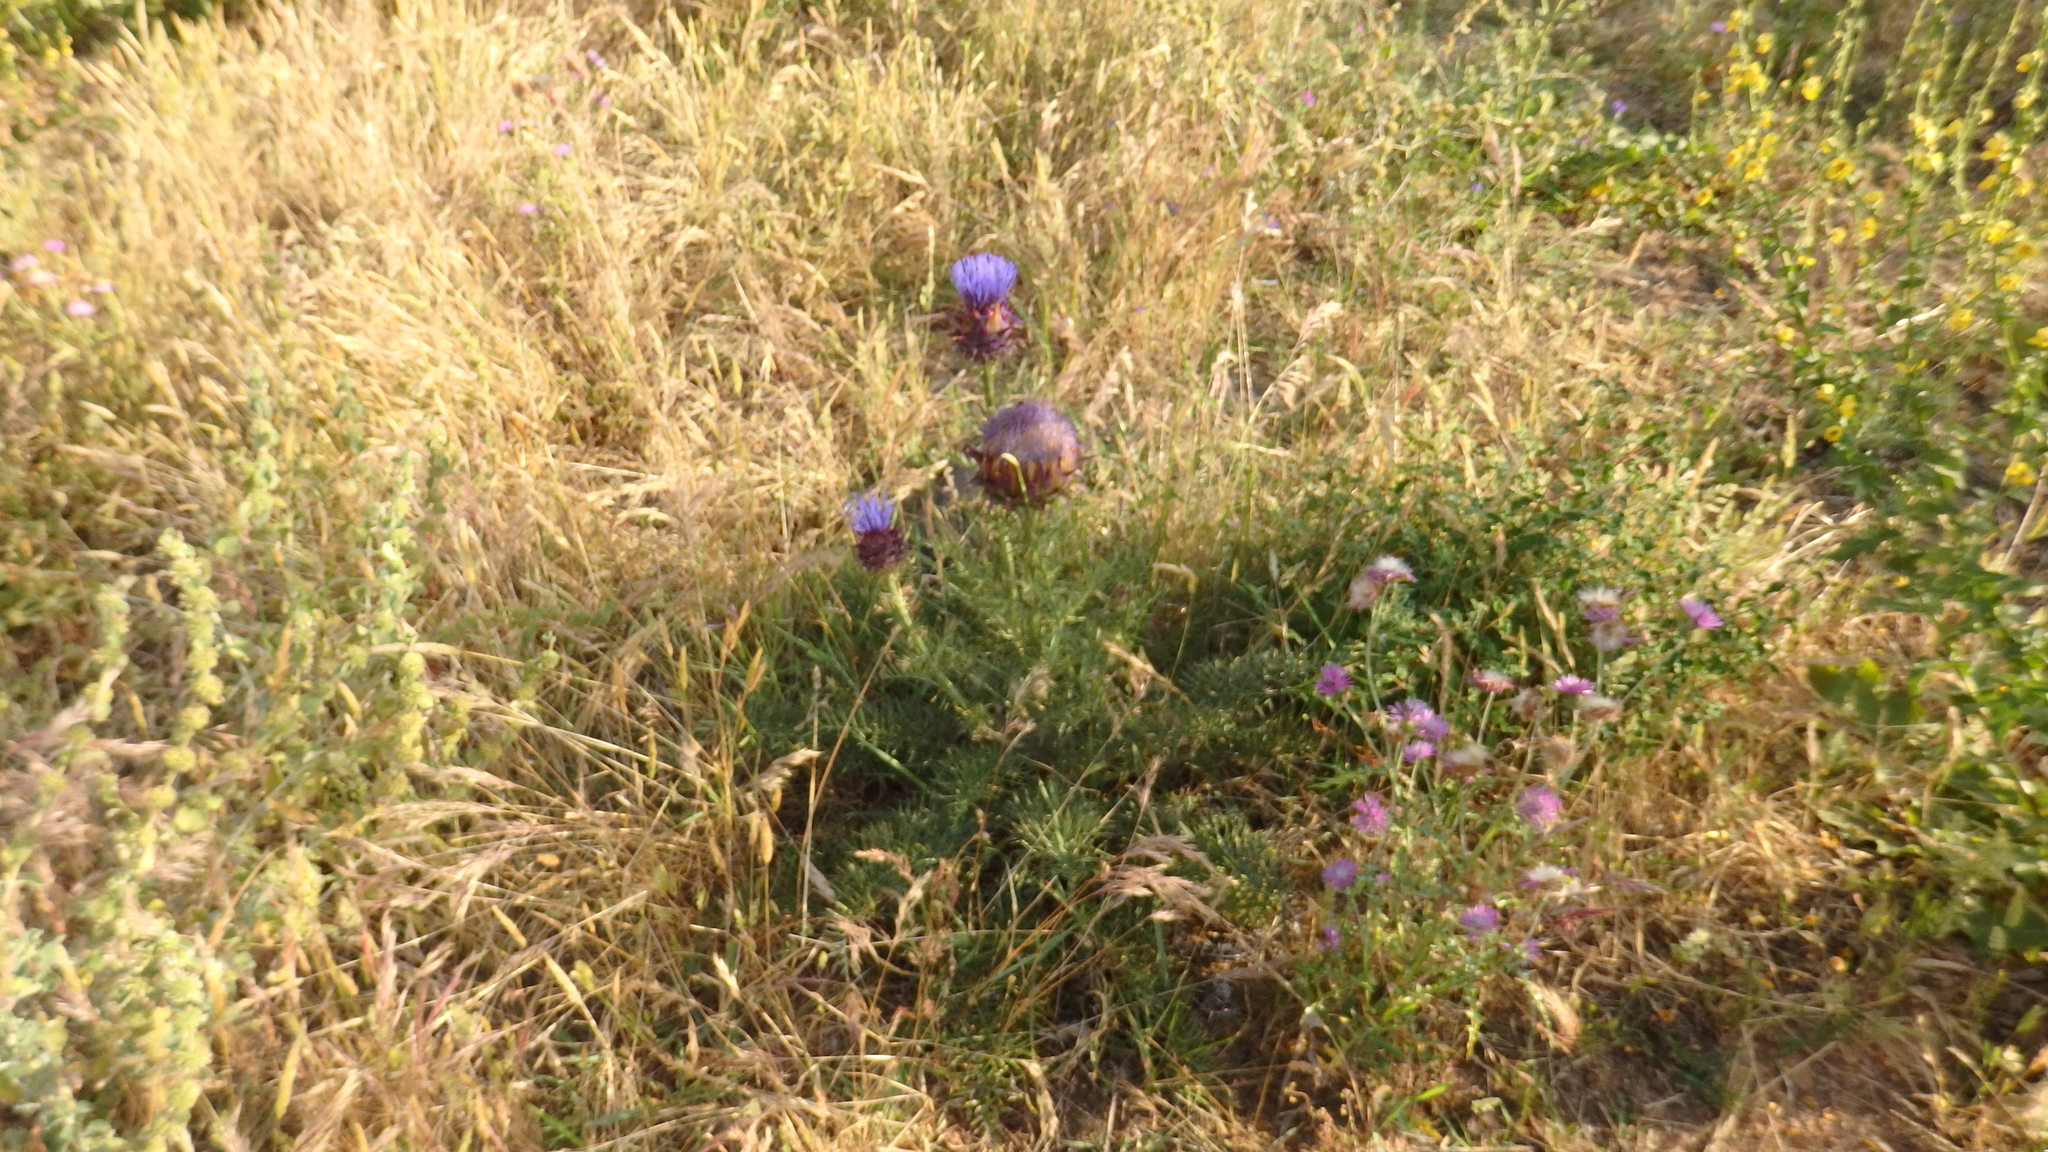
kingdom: Plantae
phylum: Tracheophyta
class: Magnoliopsida
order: Asterales
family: Asteraceae
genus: Cynara
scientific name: Cynara humilis
